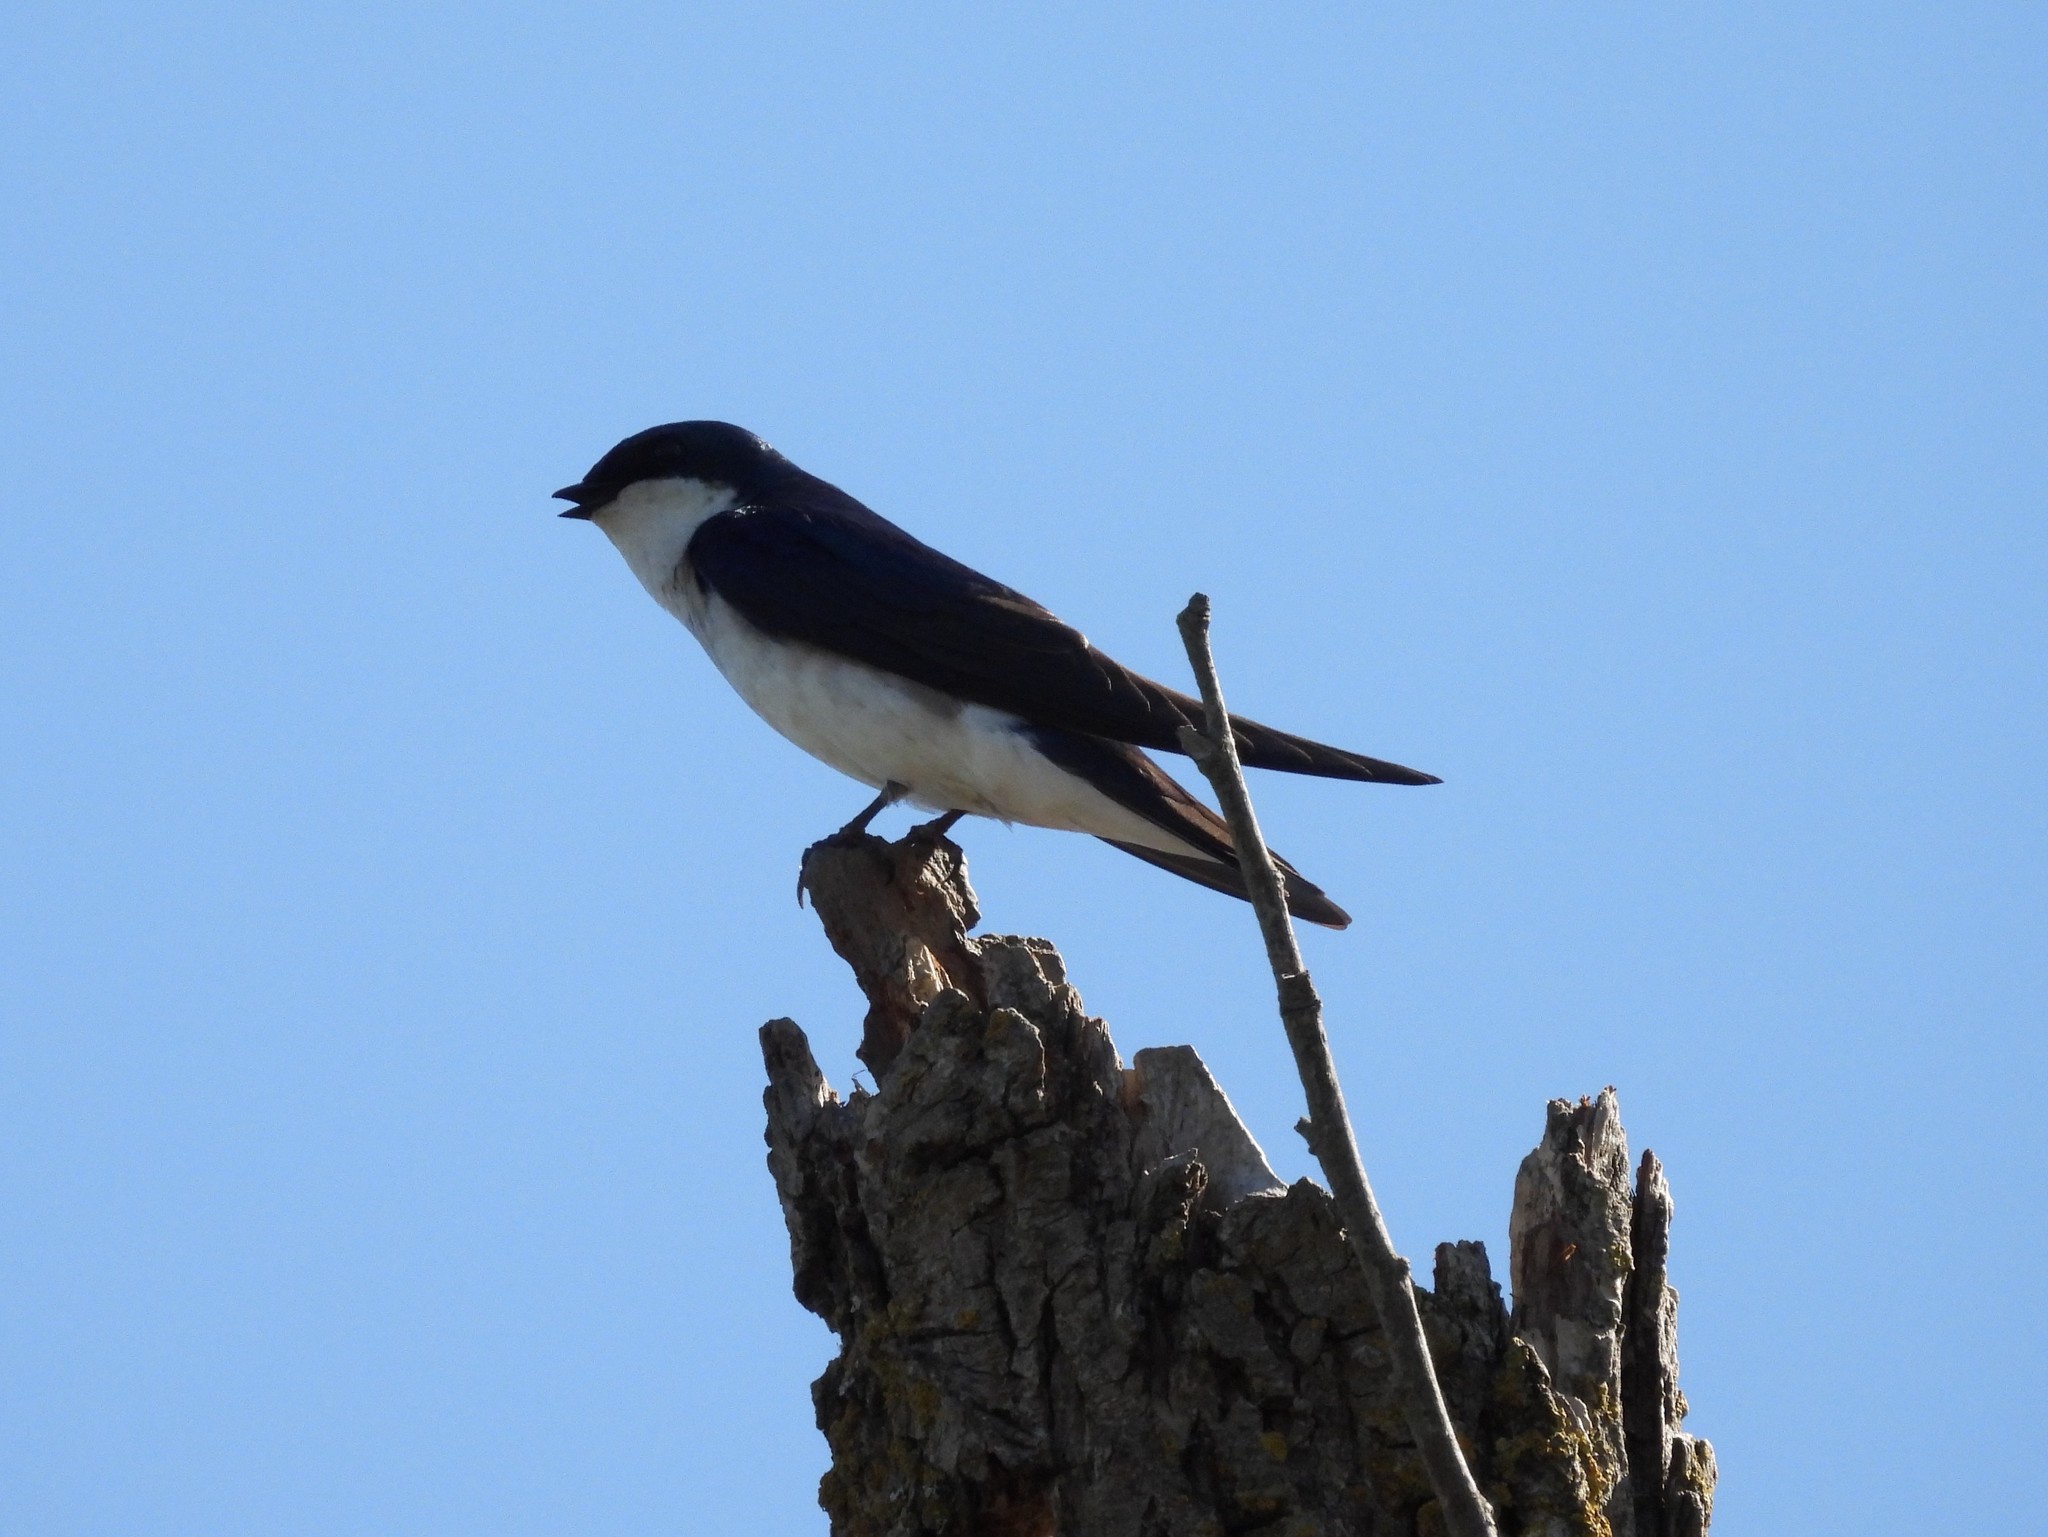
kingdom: Animalia
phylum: Chordata
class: Aves
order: Passeriformes
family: Hirundinidae
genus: Tachycineta
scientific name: Tachycineta bicolor
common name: Tree swallow
